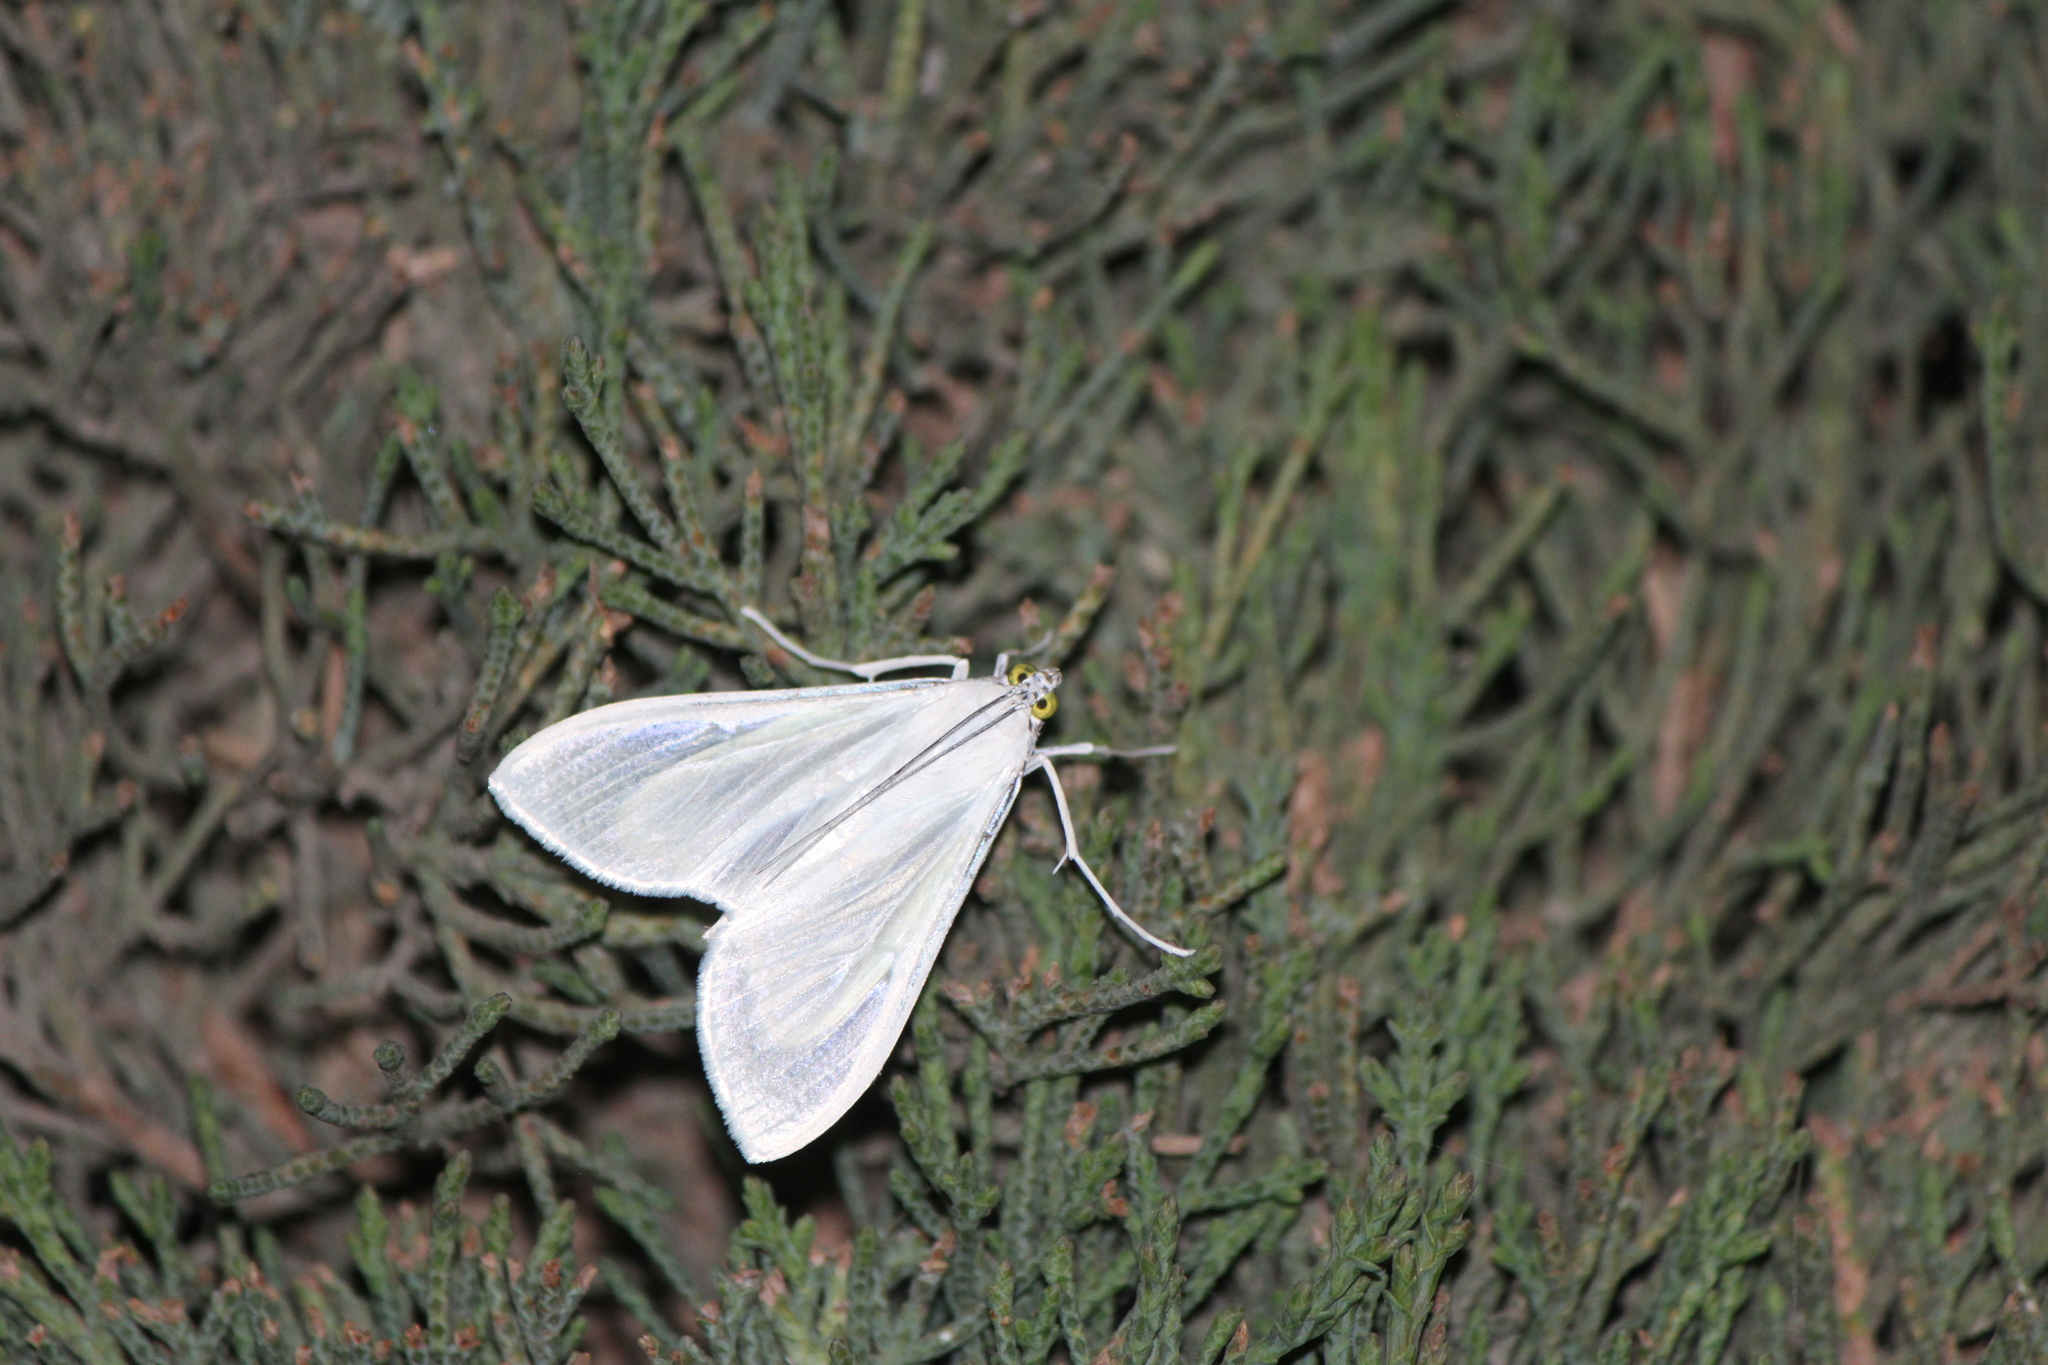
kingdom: Animalia
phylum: Arthropoda
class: Insecta
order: Lepidoptera
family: Crambidae
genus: Palpita
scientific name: Palpita flegia
